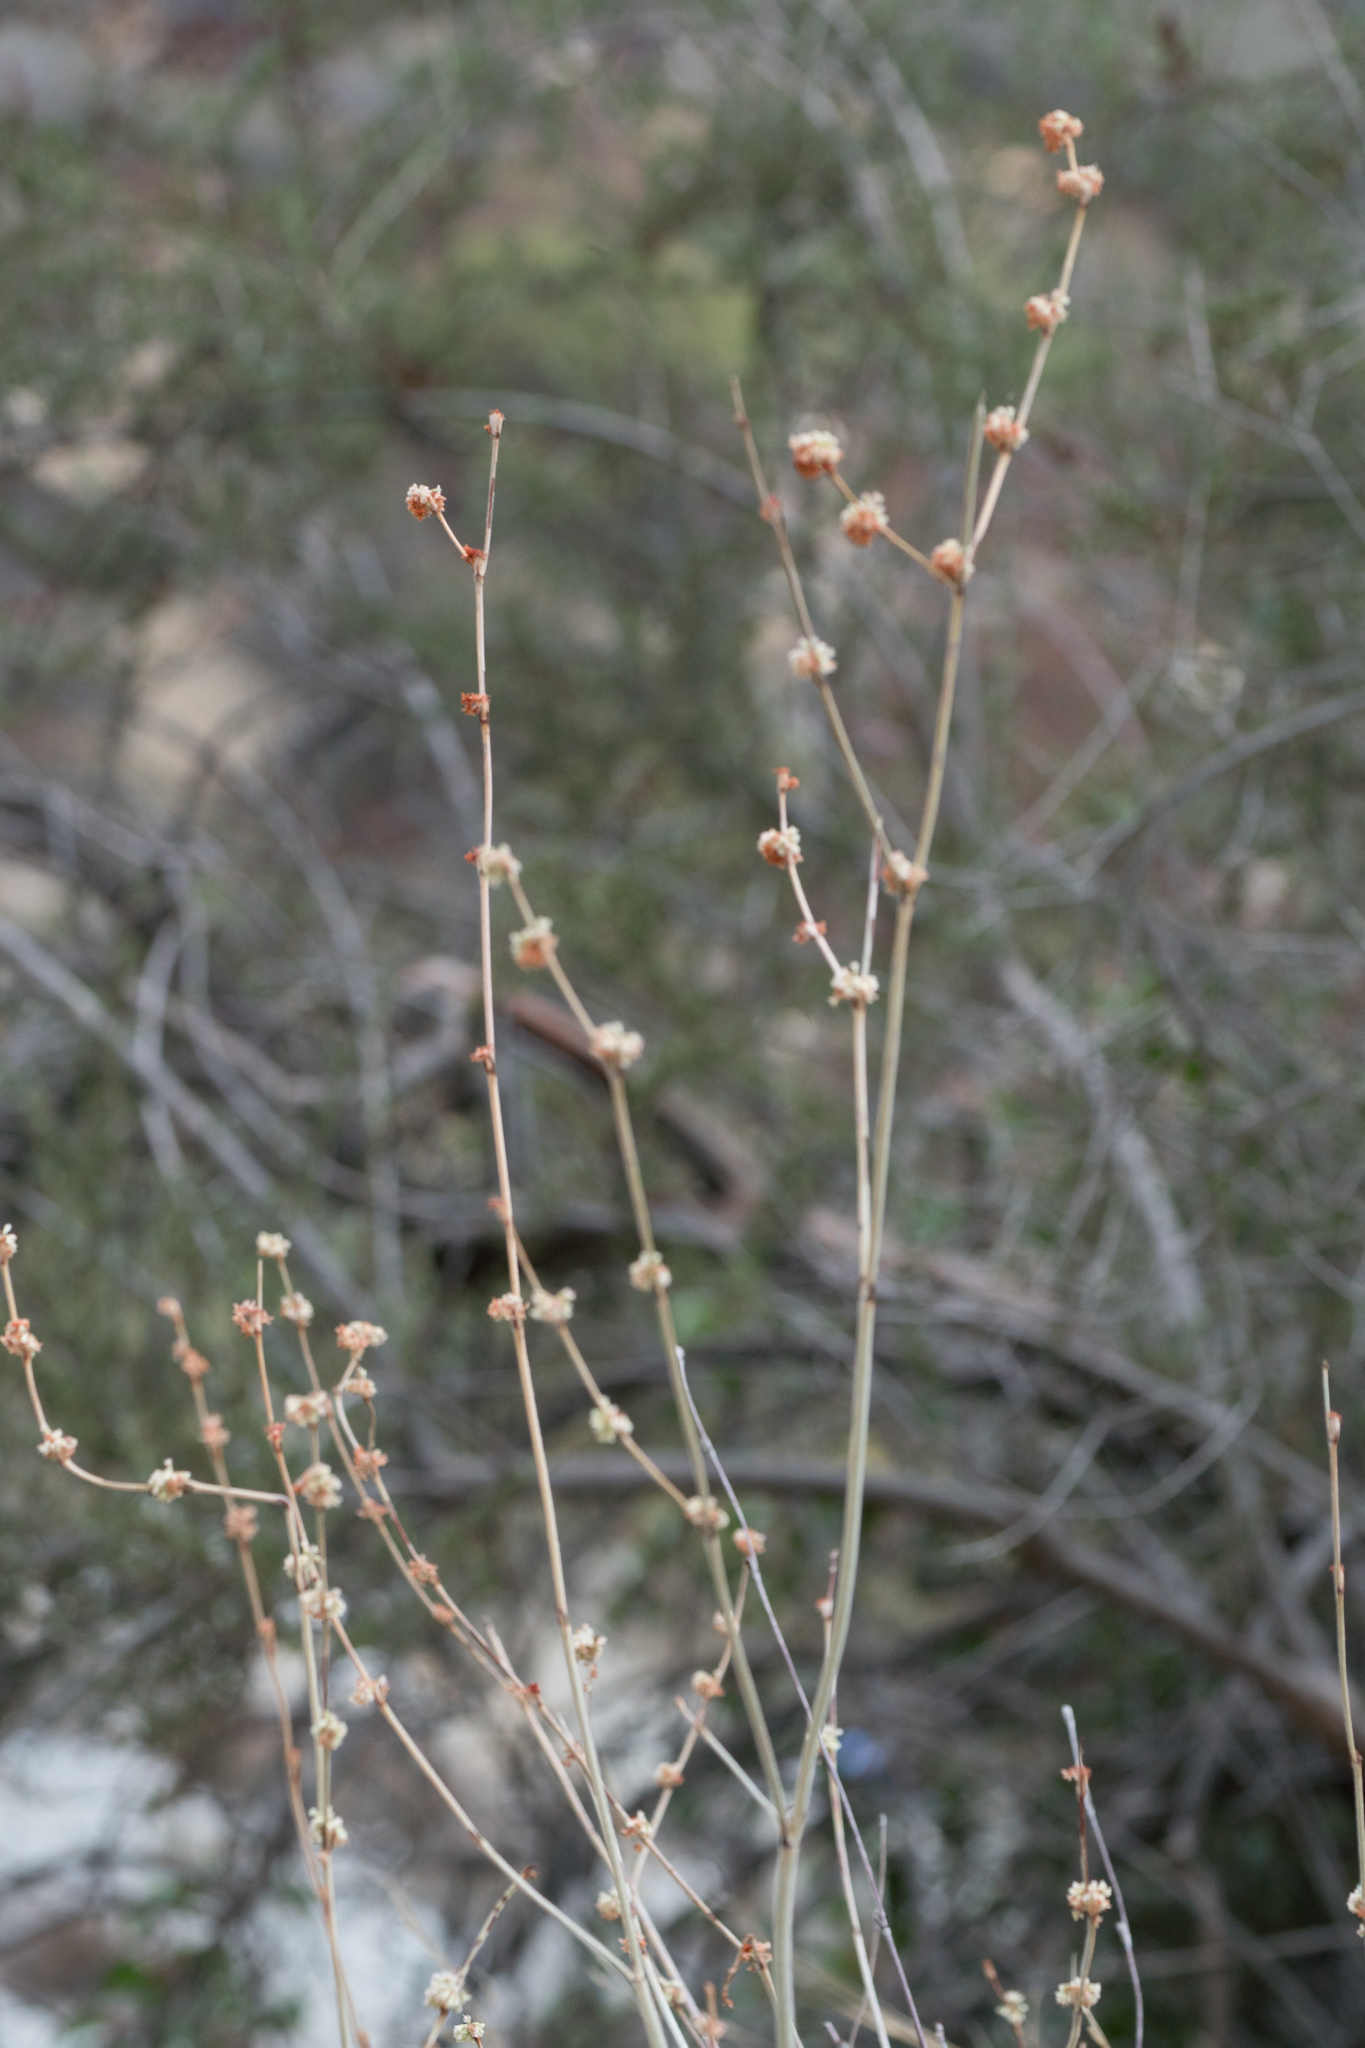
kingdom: Plantae
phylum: Tracheophyta
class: Magnoliopsida
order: Caryophyllales
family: Polygonaceae
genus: Eriogonum
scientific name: Eriogonum elongatum
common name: Long-stem wild buckwheat
